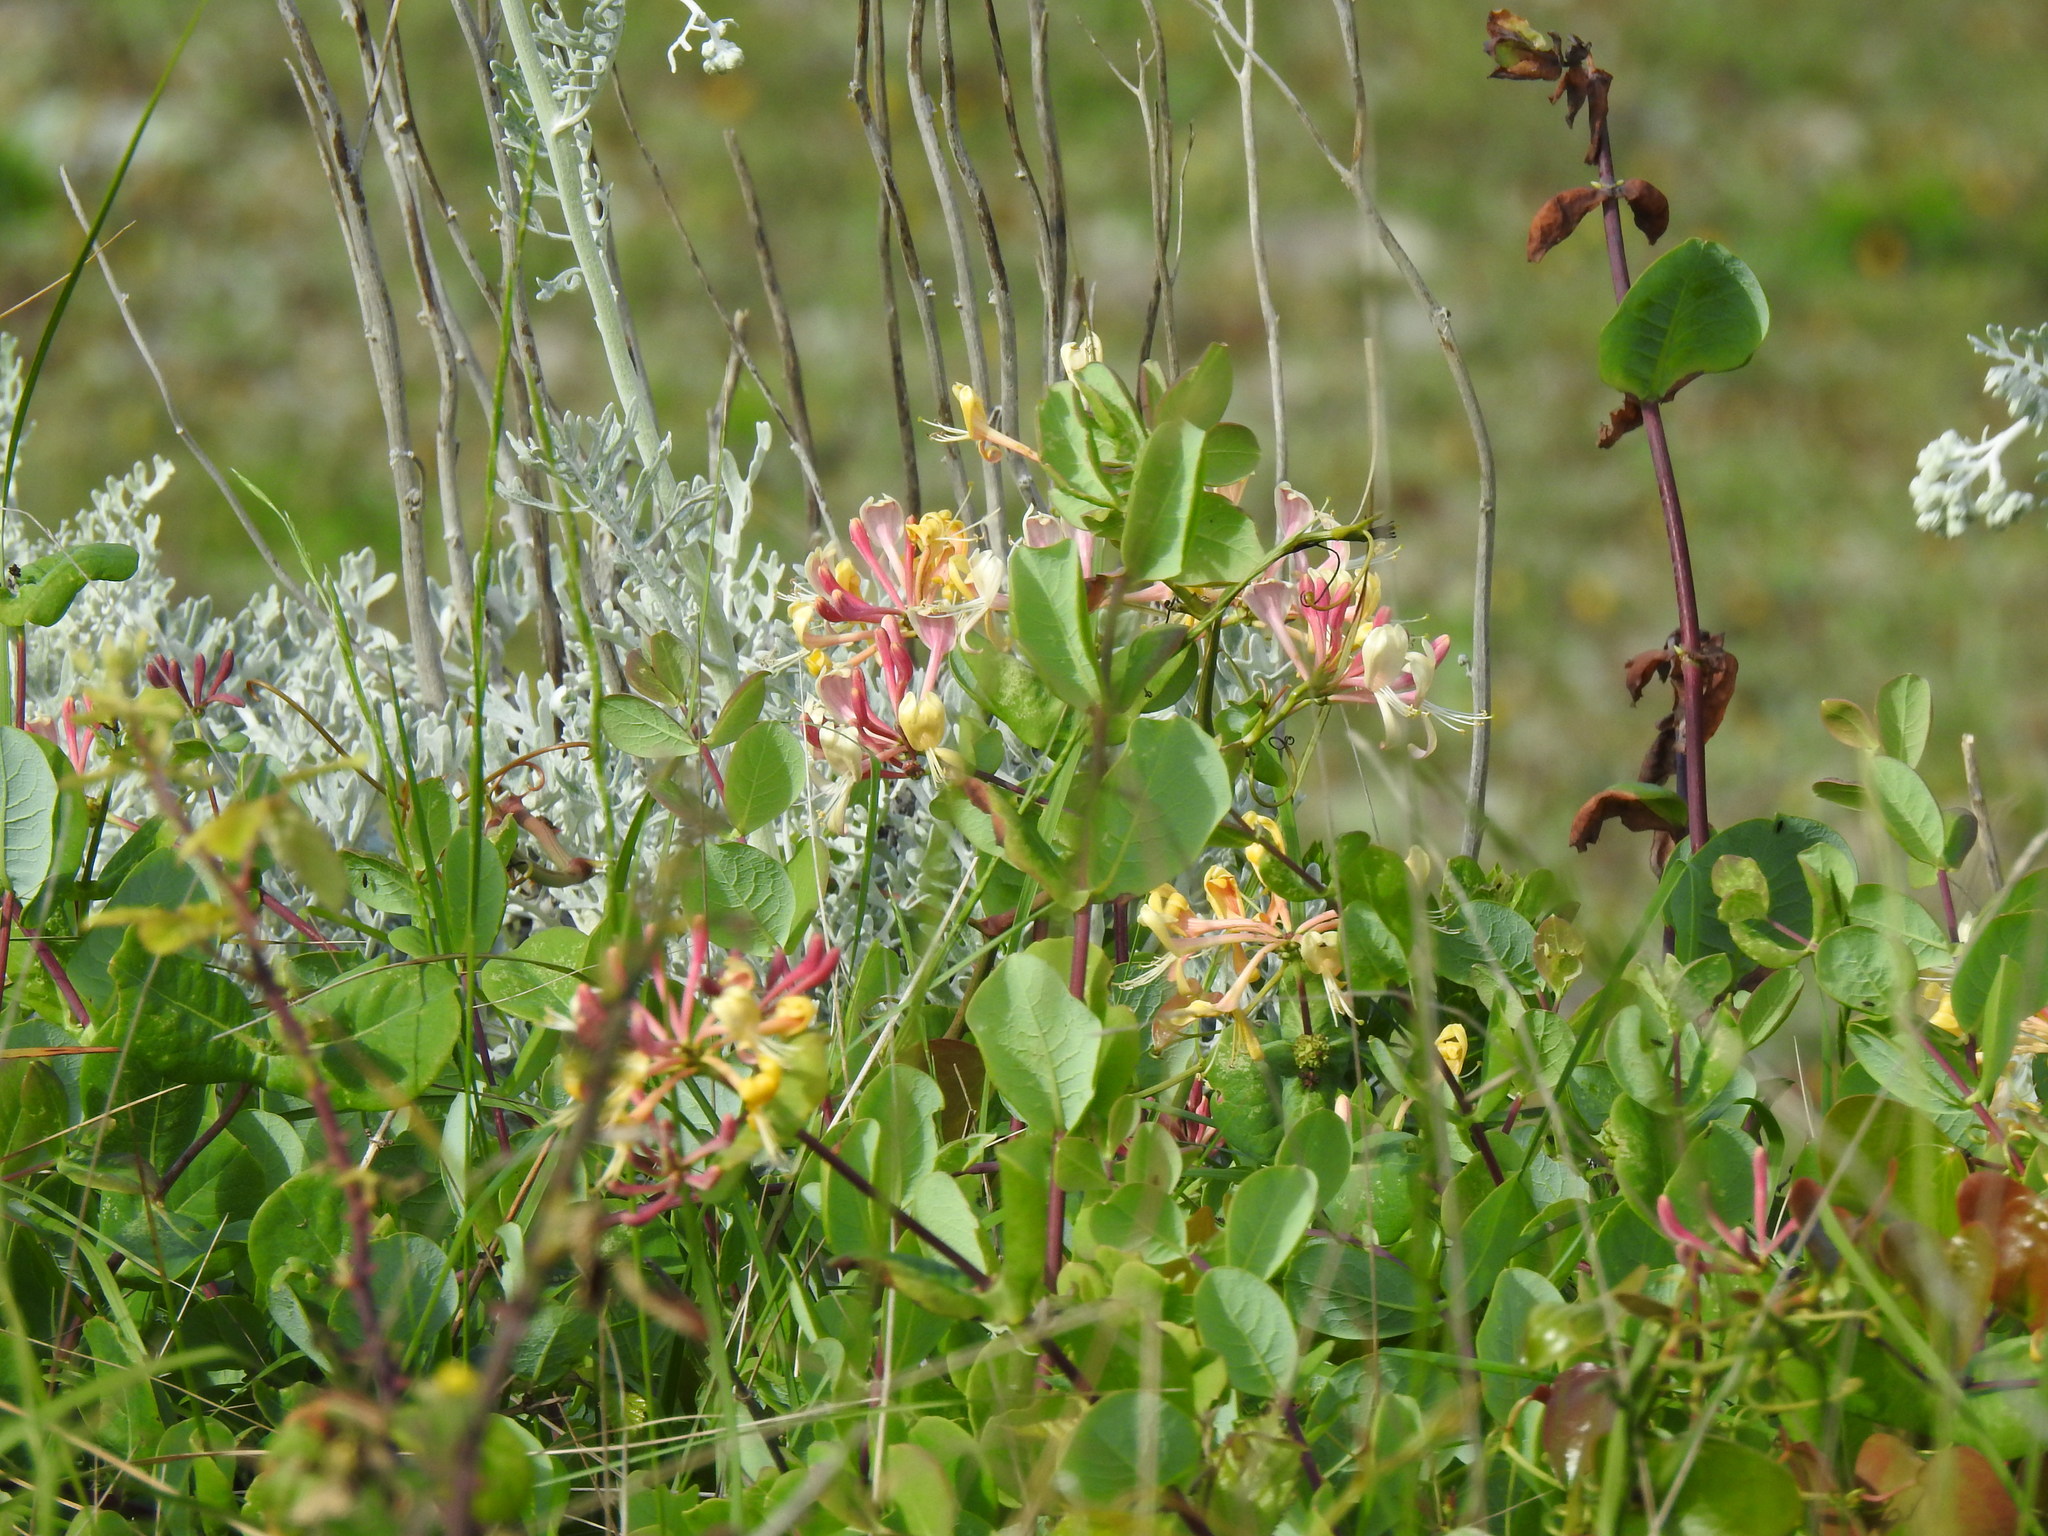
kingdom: Plantae
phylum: Tracheophyta
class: Magnoliopsida
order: Dipsacales
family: Caprifoliaceae
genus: Lonicera
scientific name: Lonicera etrusca
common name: Etruscan honeysuckle
